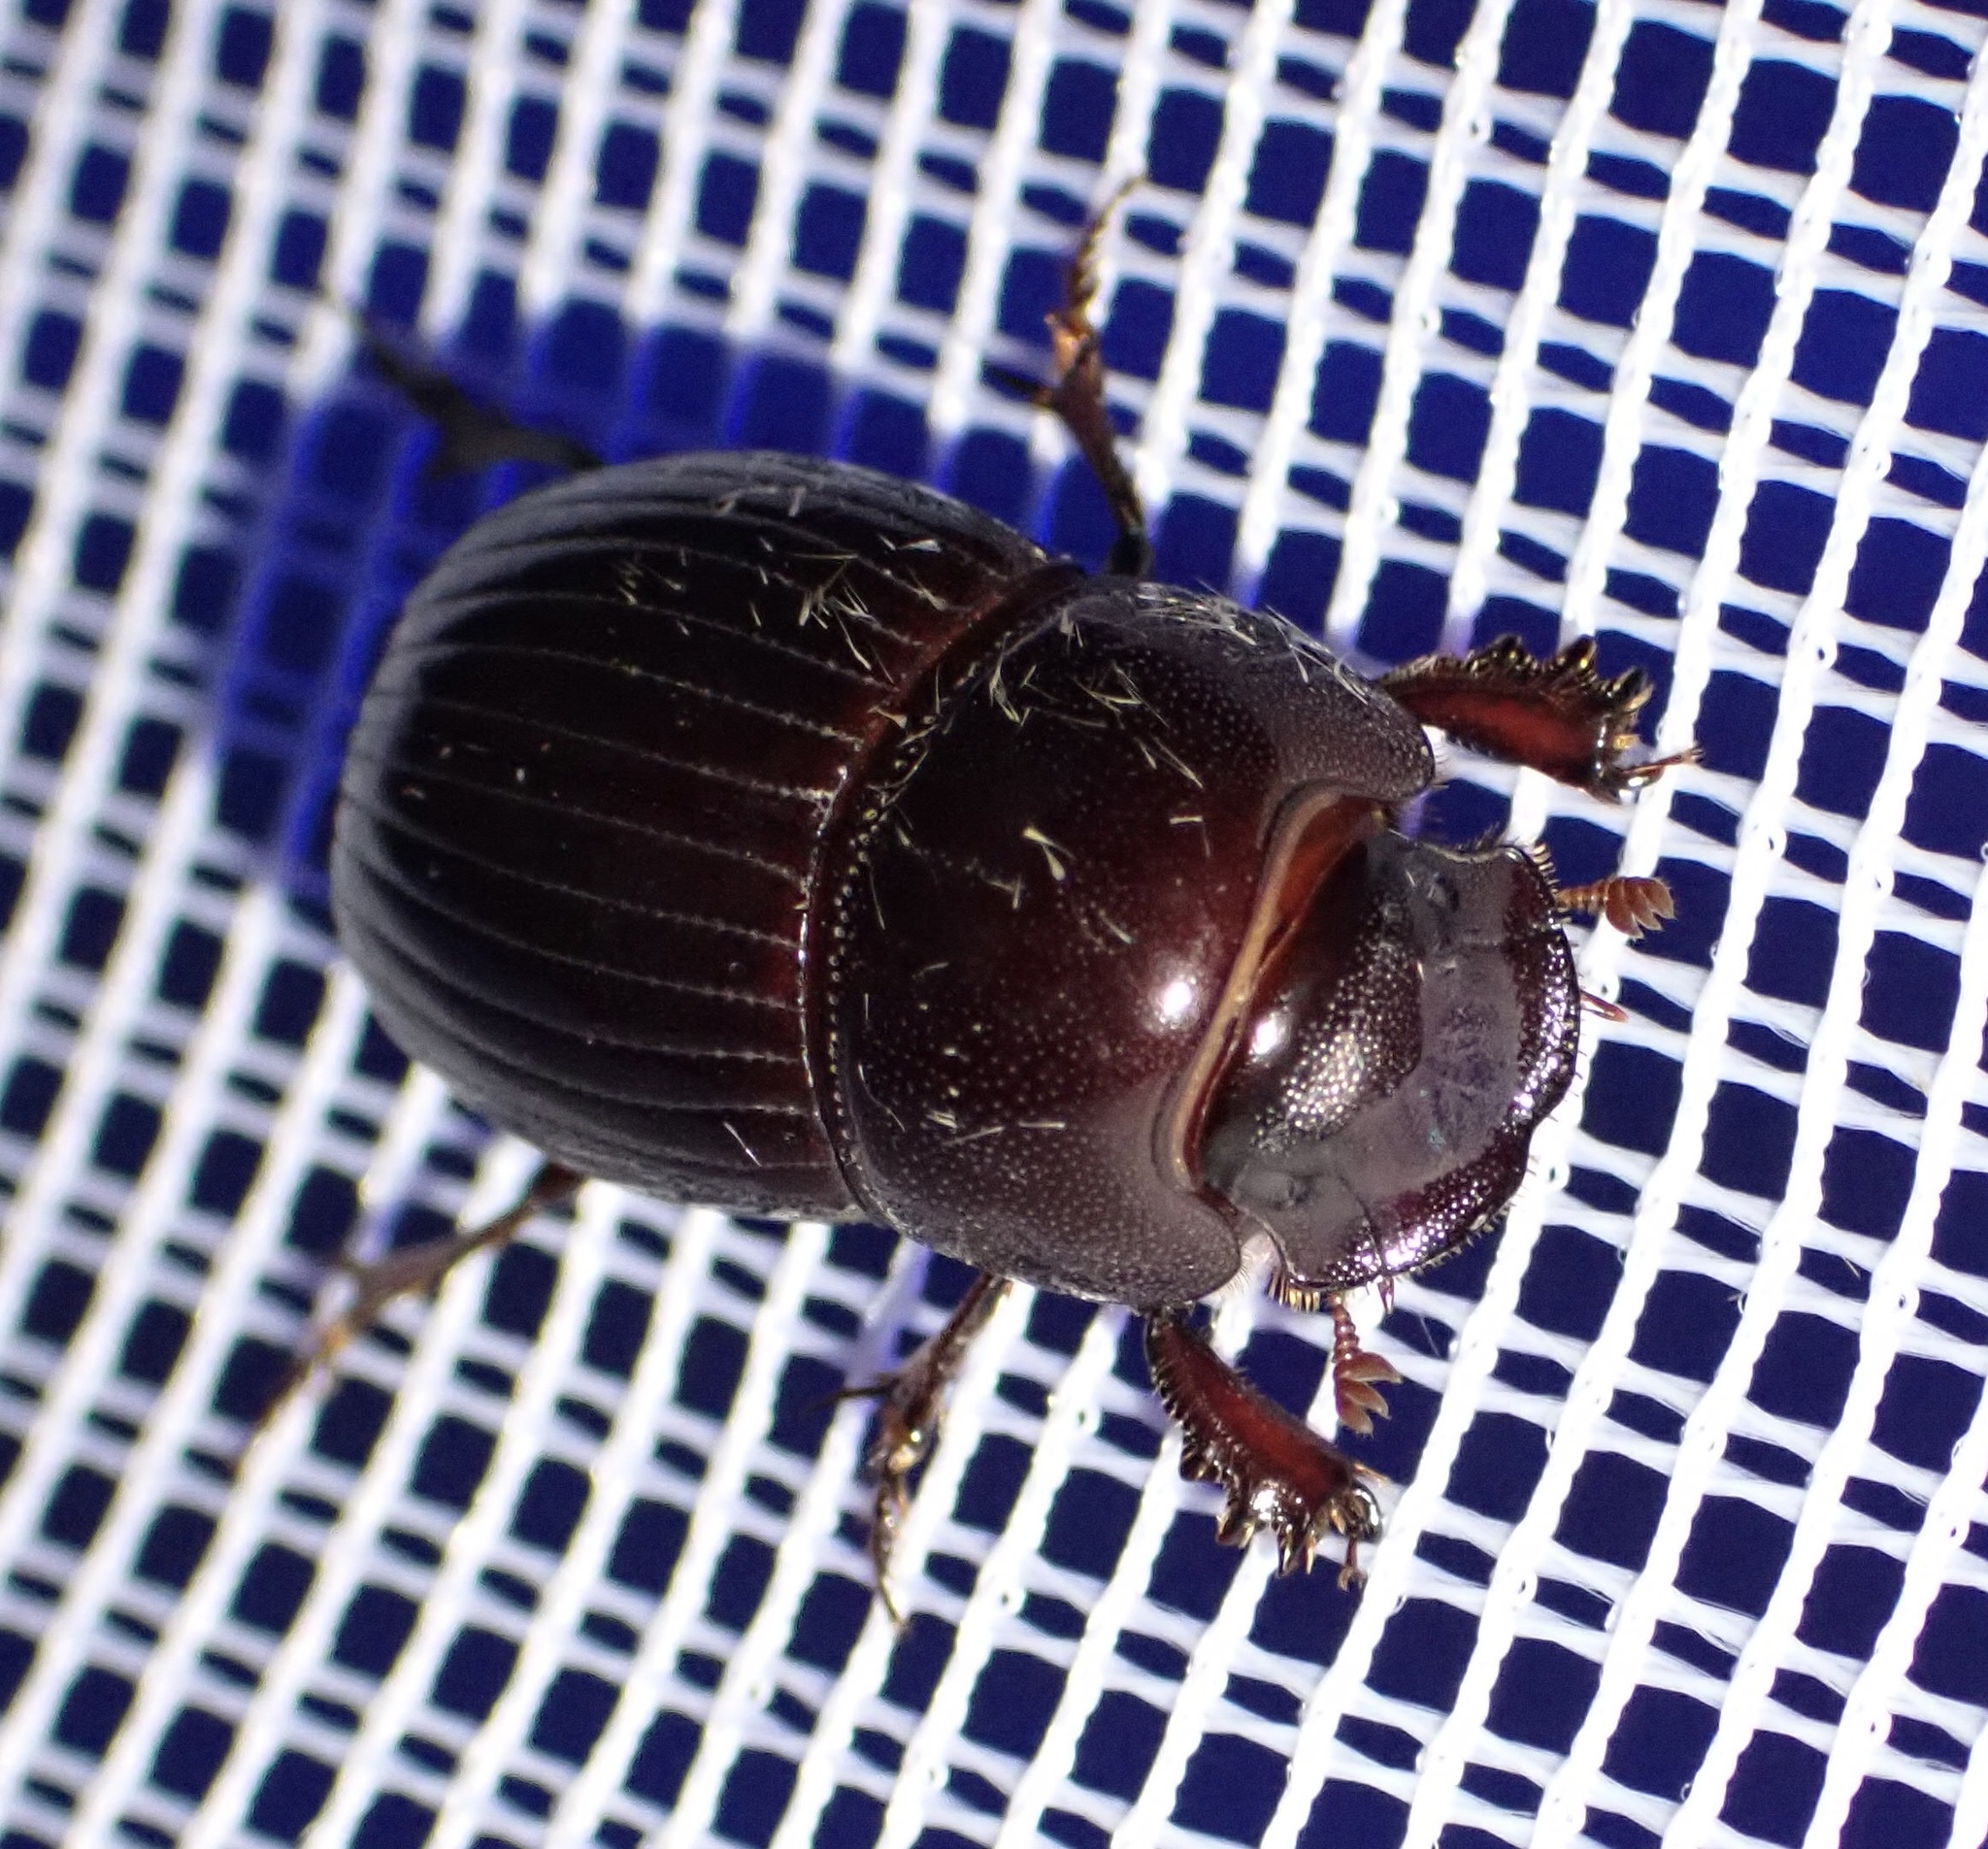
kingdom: Animalia
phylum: Arthropoda
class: Insecta
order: Coleoptera
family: Scarabaeidae
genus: Copris
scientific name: Copris obesus
